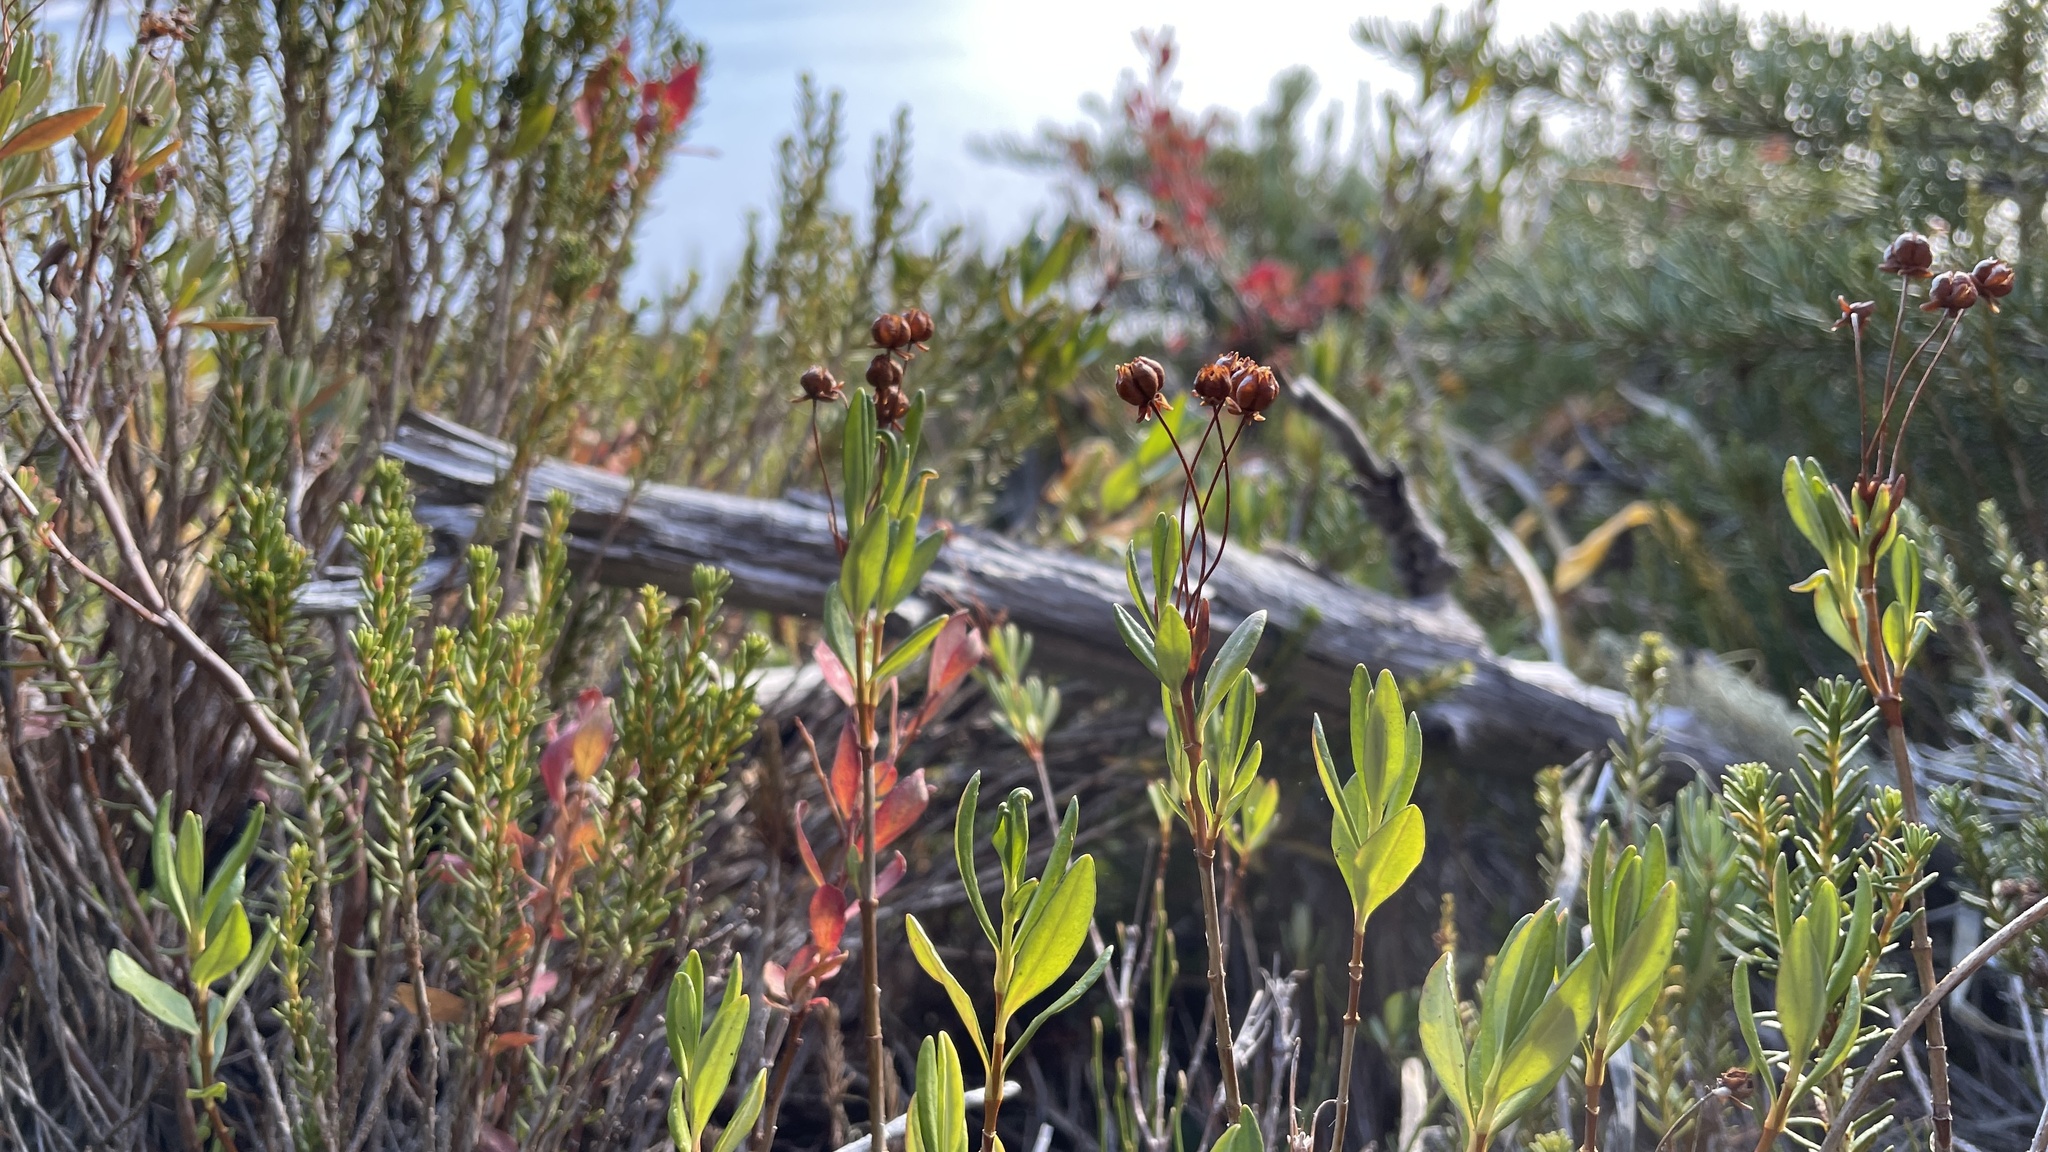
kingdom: Plantae
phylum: Tracheophyta
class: Magnoliopsida
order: Ericales
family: Ericaceae
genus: Kalmia
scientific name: Kalmia microphylla
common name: Alpine bog laurel
